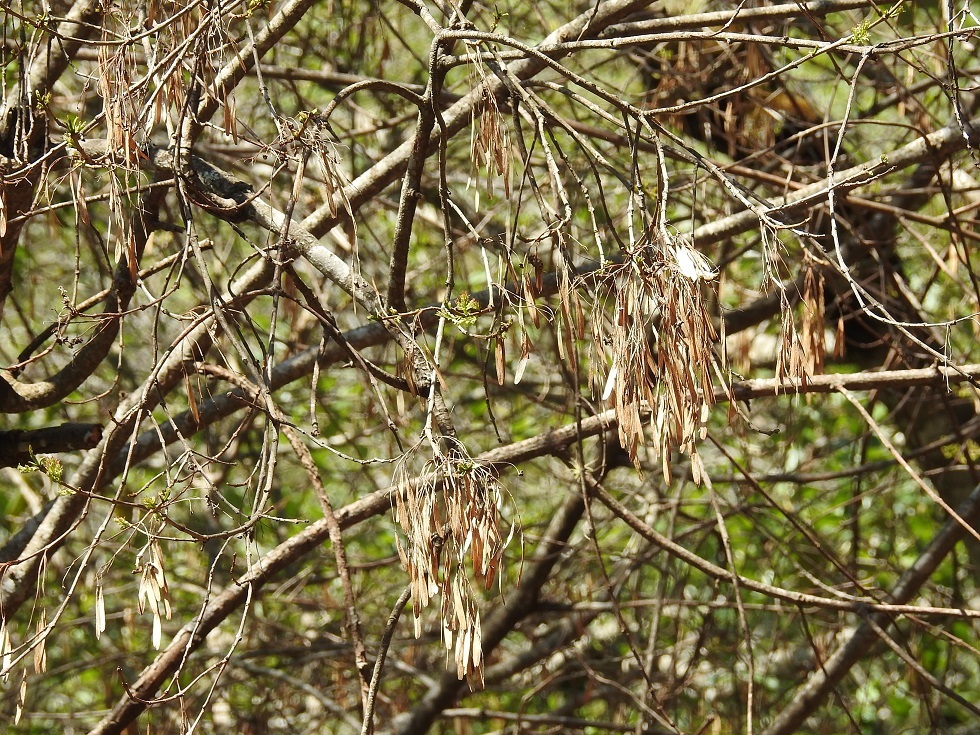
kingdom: Plantae
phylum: Tracheophyta
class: Magnoliopsida
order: Lamiales
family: Oleaceae
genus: Fraxinus
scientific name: Fraxinus uhdei
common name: Shamel ash
